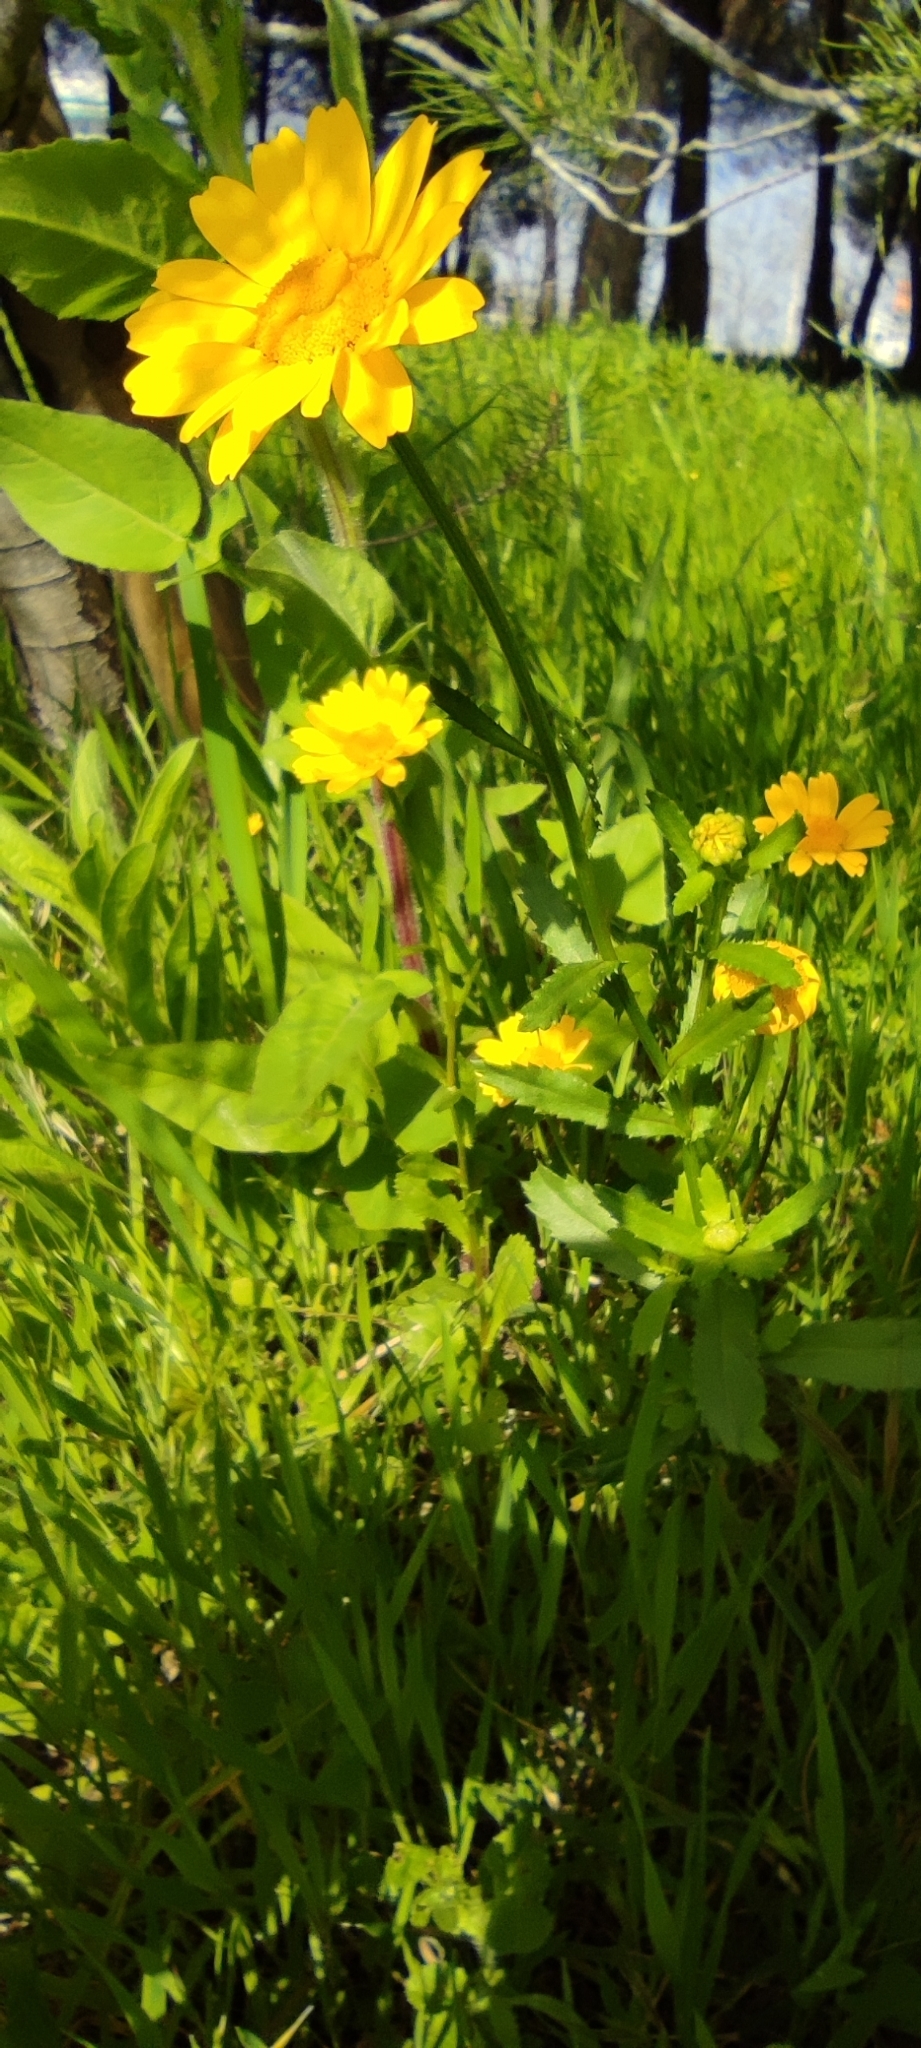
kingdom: Plantae
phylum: Tracheophyta
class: Magnoliopsida
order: Asterales
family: Asteraceae
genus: Coleostephus
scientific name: Coleostephus myconis
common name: Mediterranean marigold
